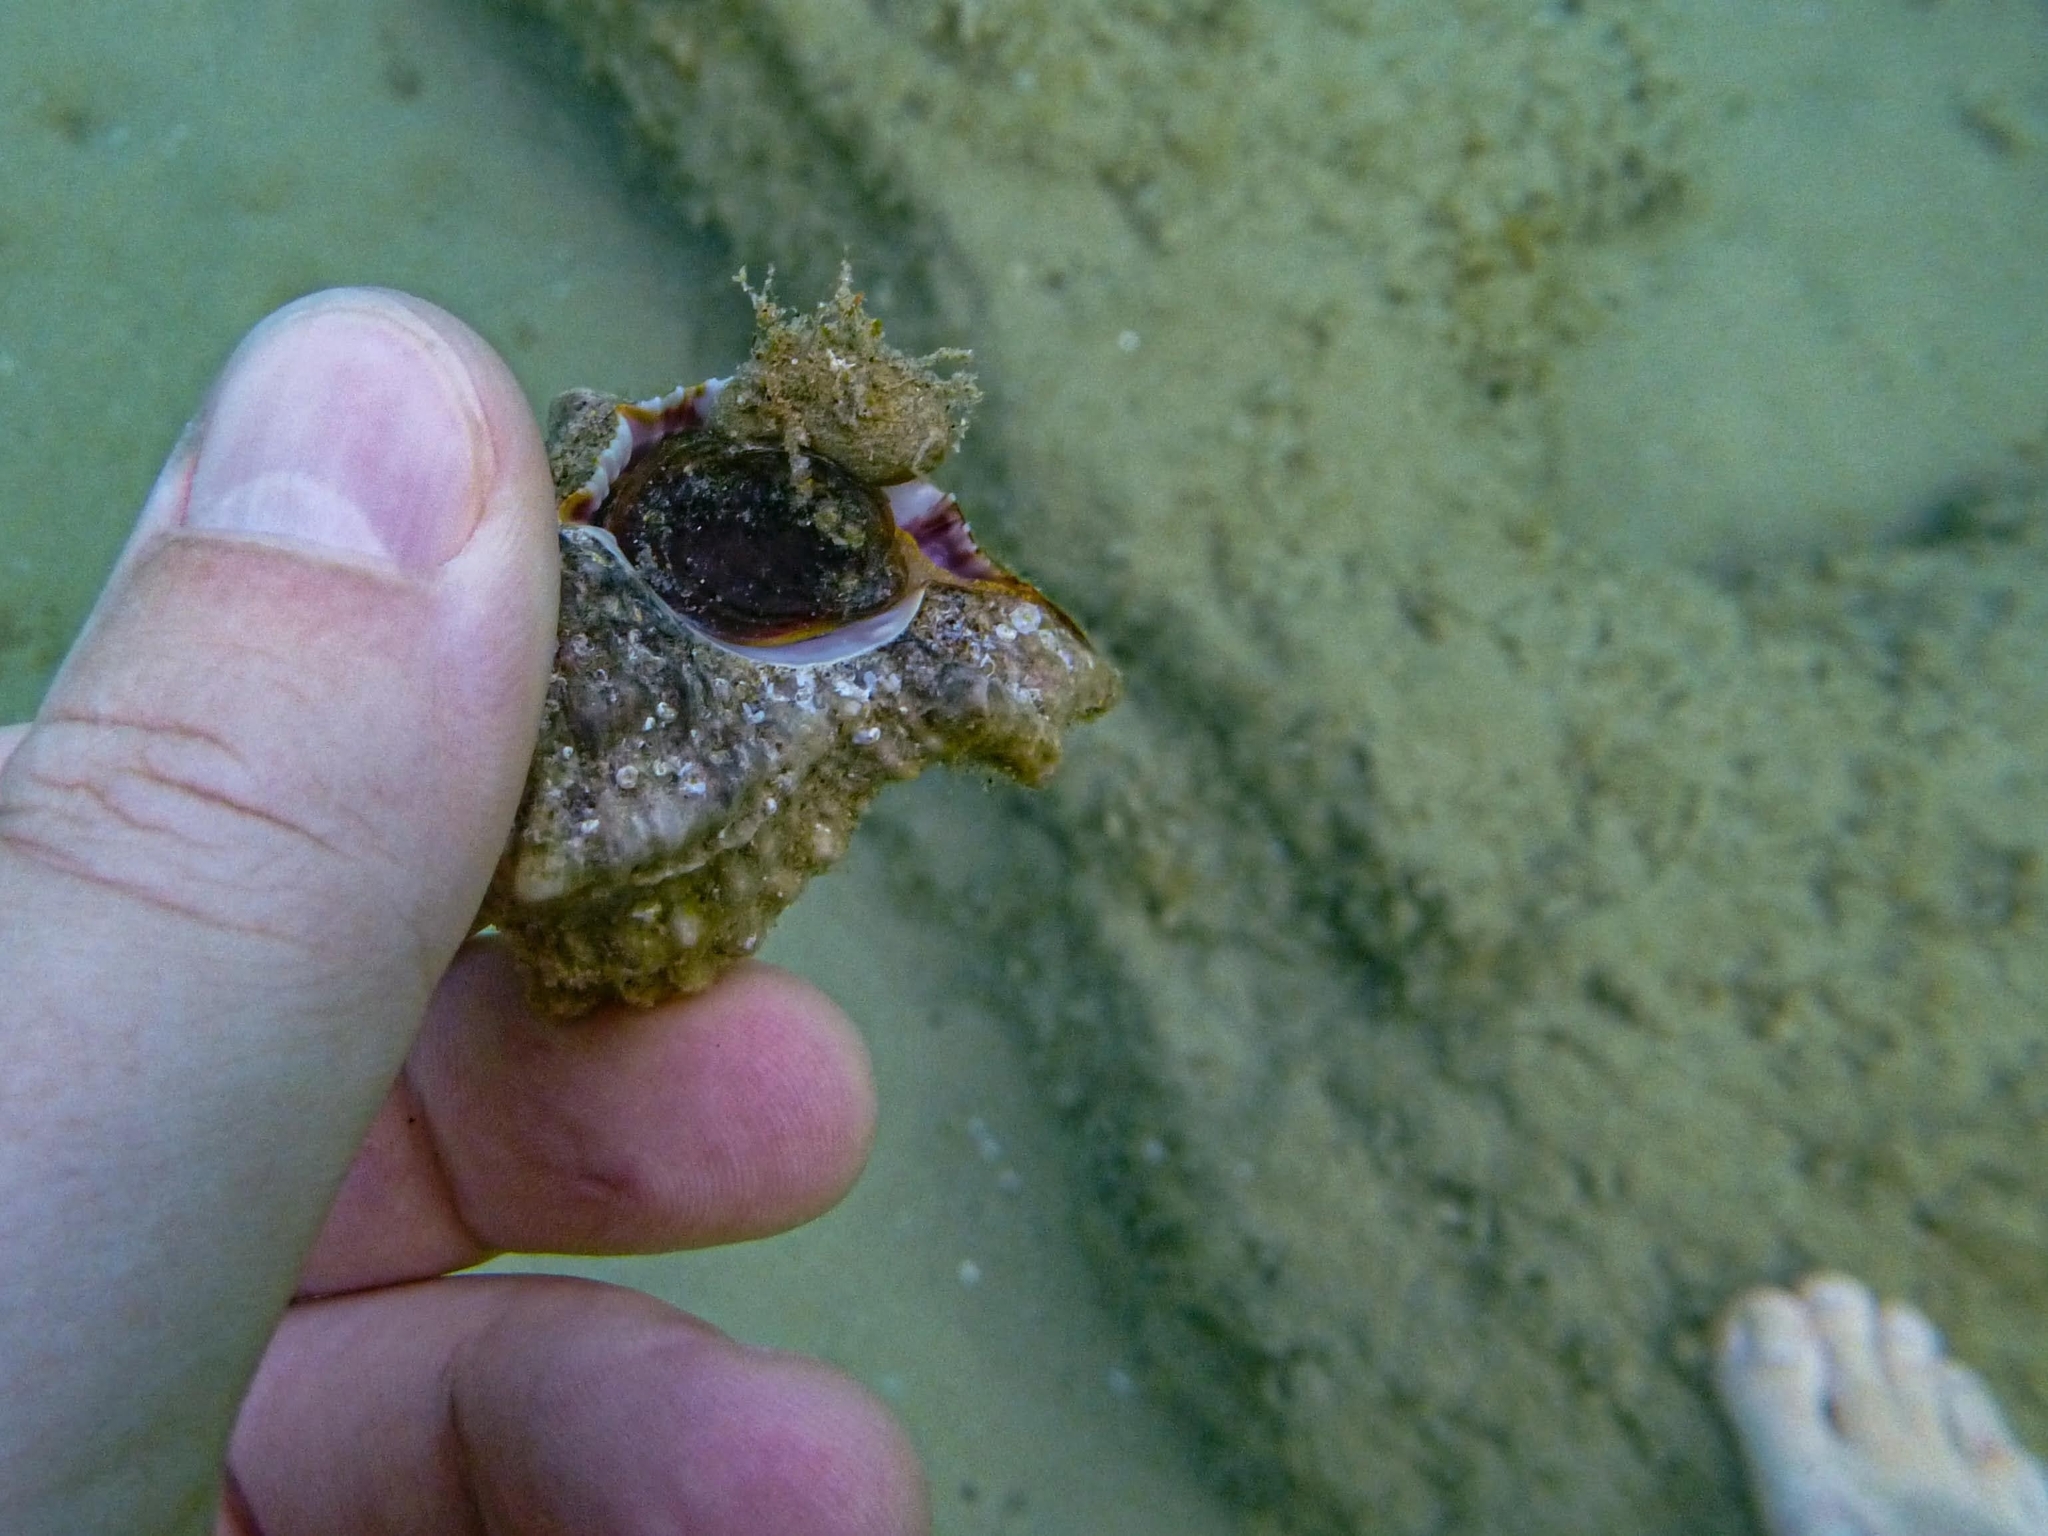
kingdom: Animalia
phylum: Mollusca
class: Gastropoda
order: Neogastropoda
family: Muricidae
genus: Hexaplex
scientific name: Hexaplex trunculus
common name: Banded dye-murex
